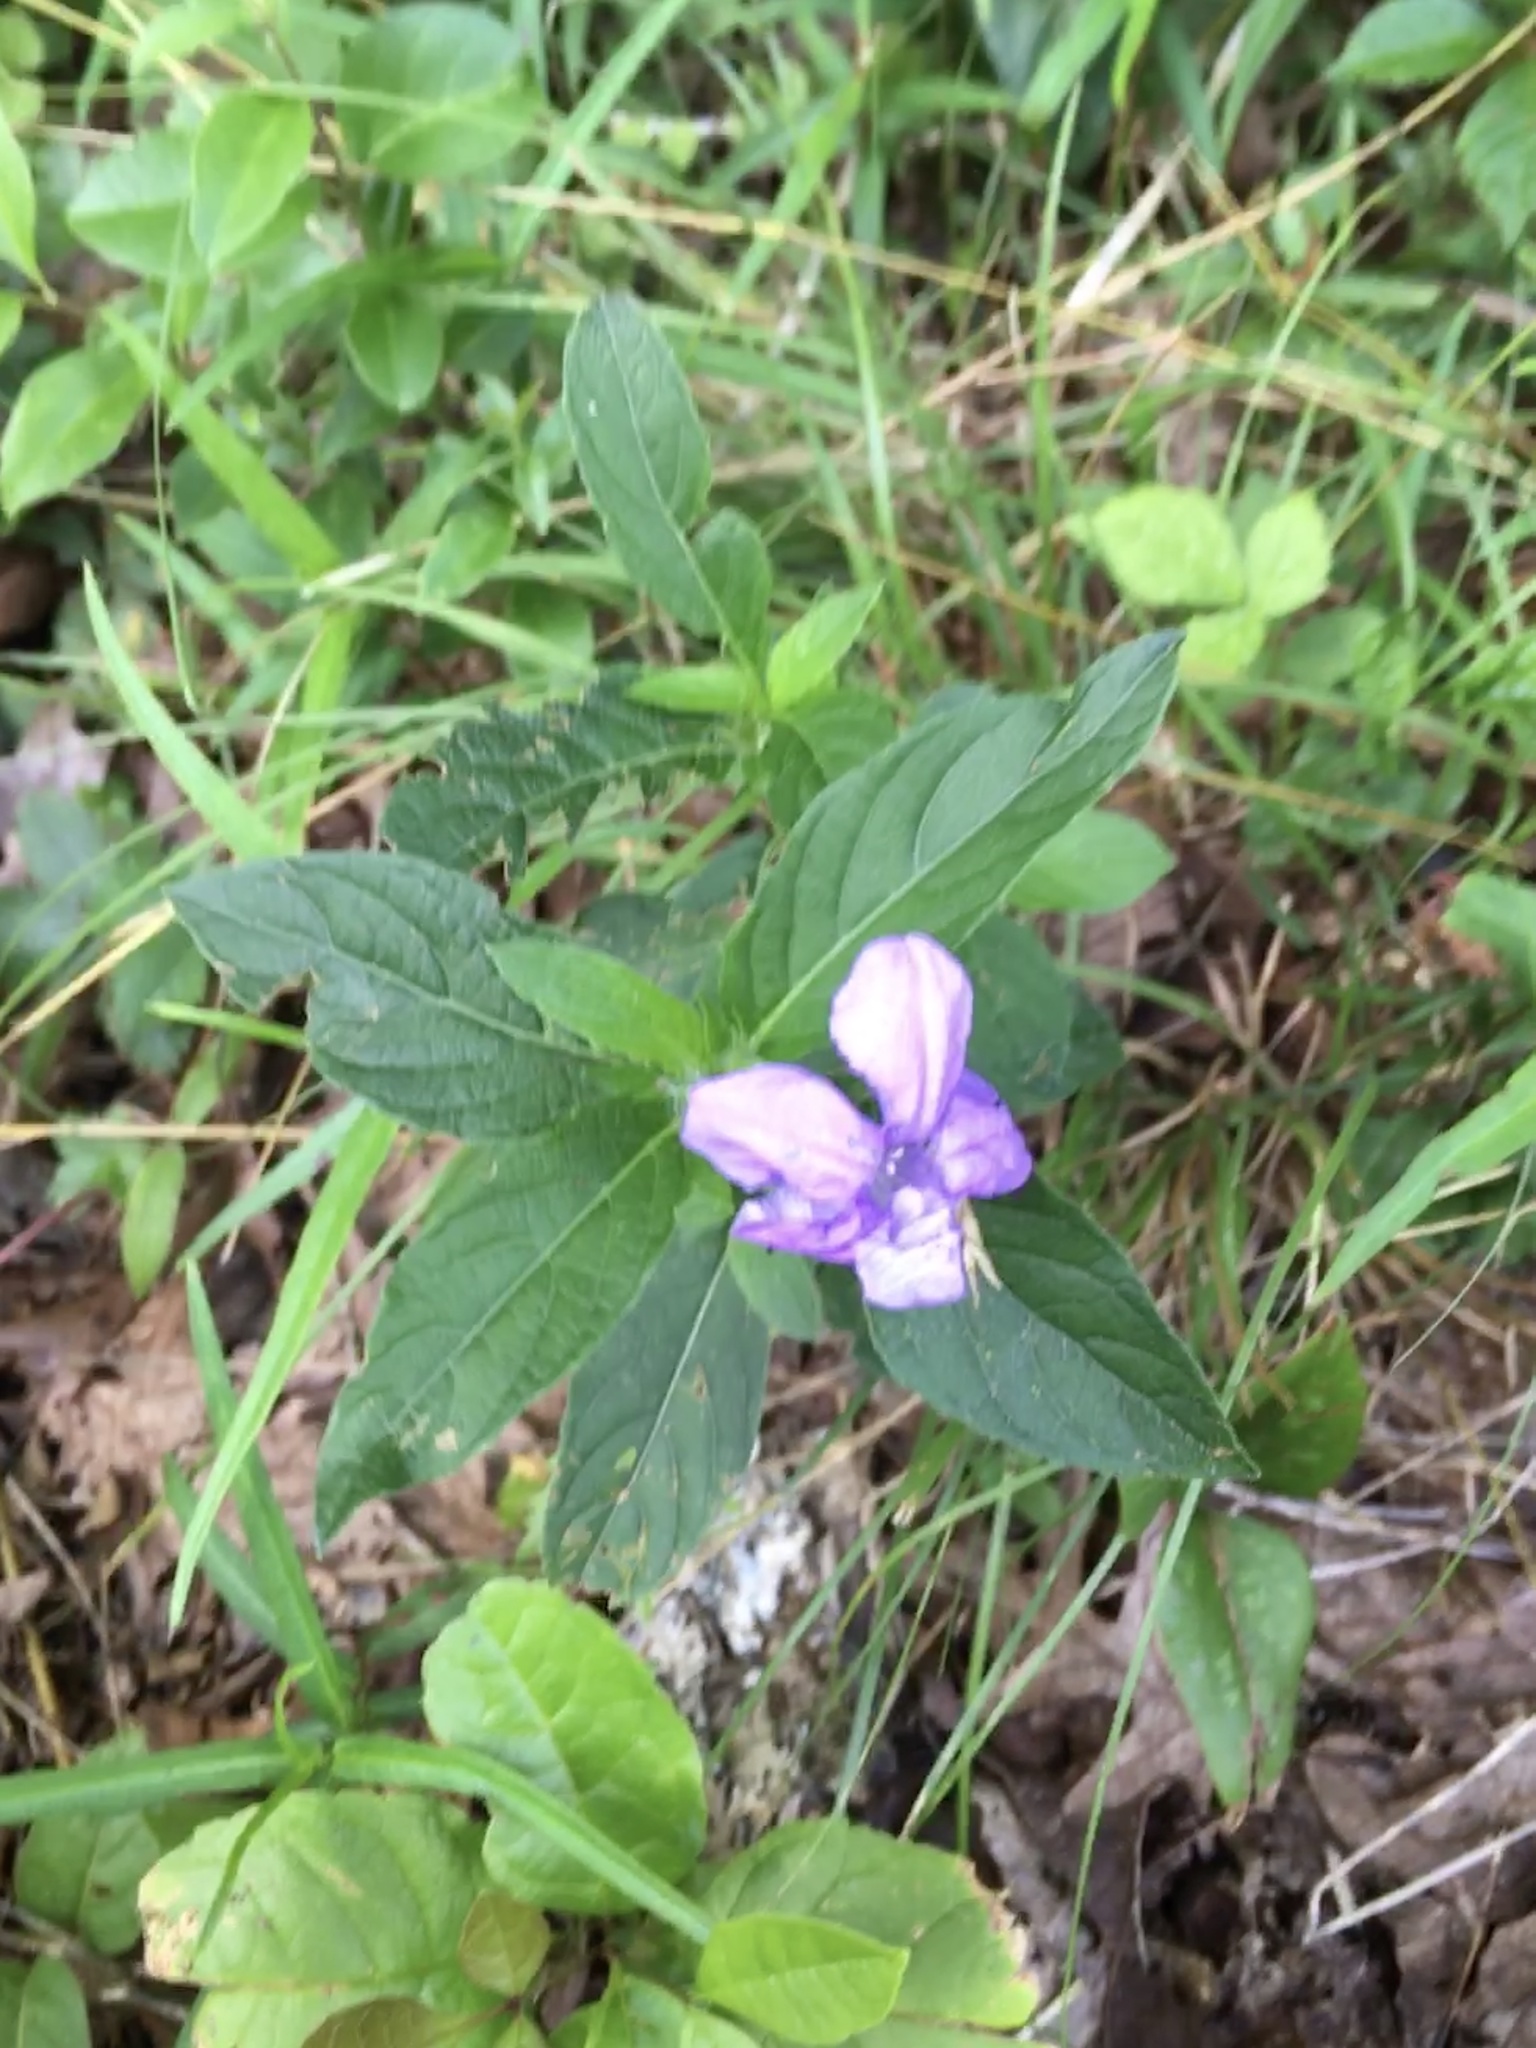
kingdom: Plantae
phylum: Tracheophyta
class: Magnoliopsida
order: Lamiales
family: Acanthaceae
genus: Ruellia
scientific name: Ruellia caroliniensis
